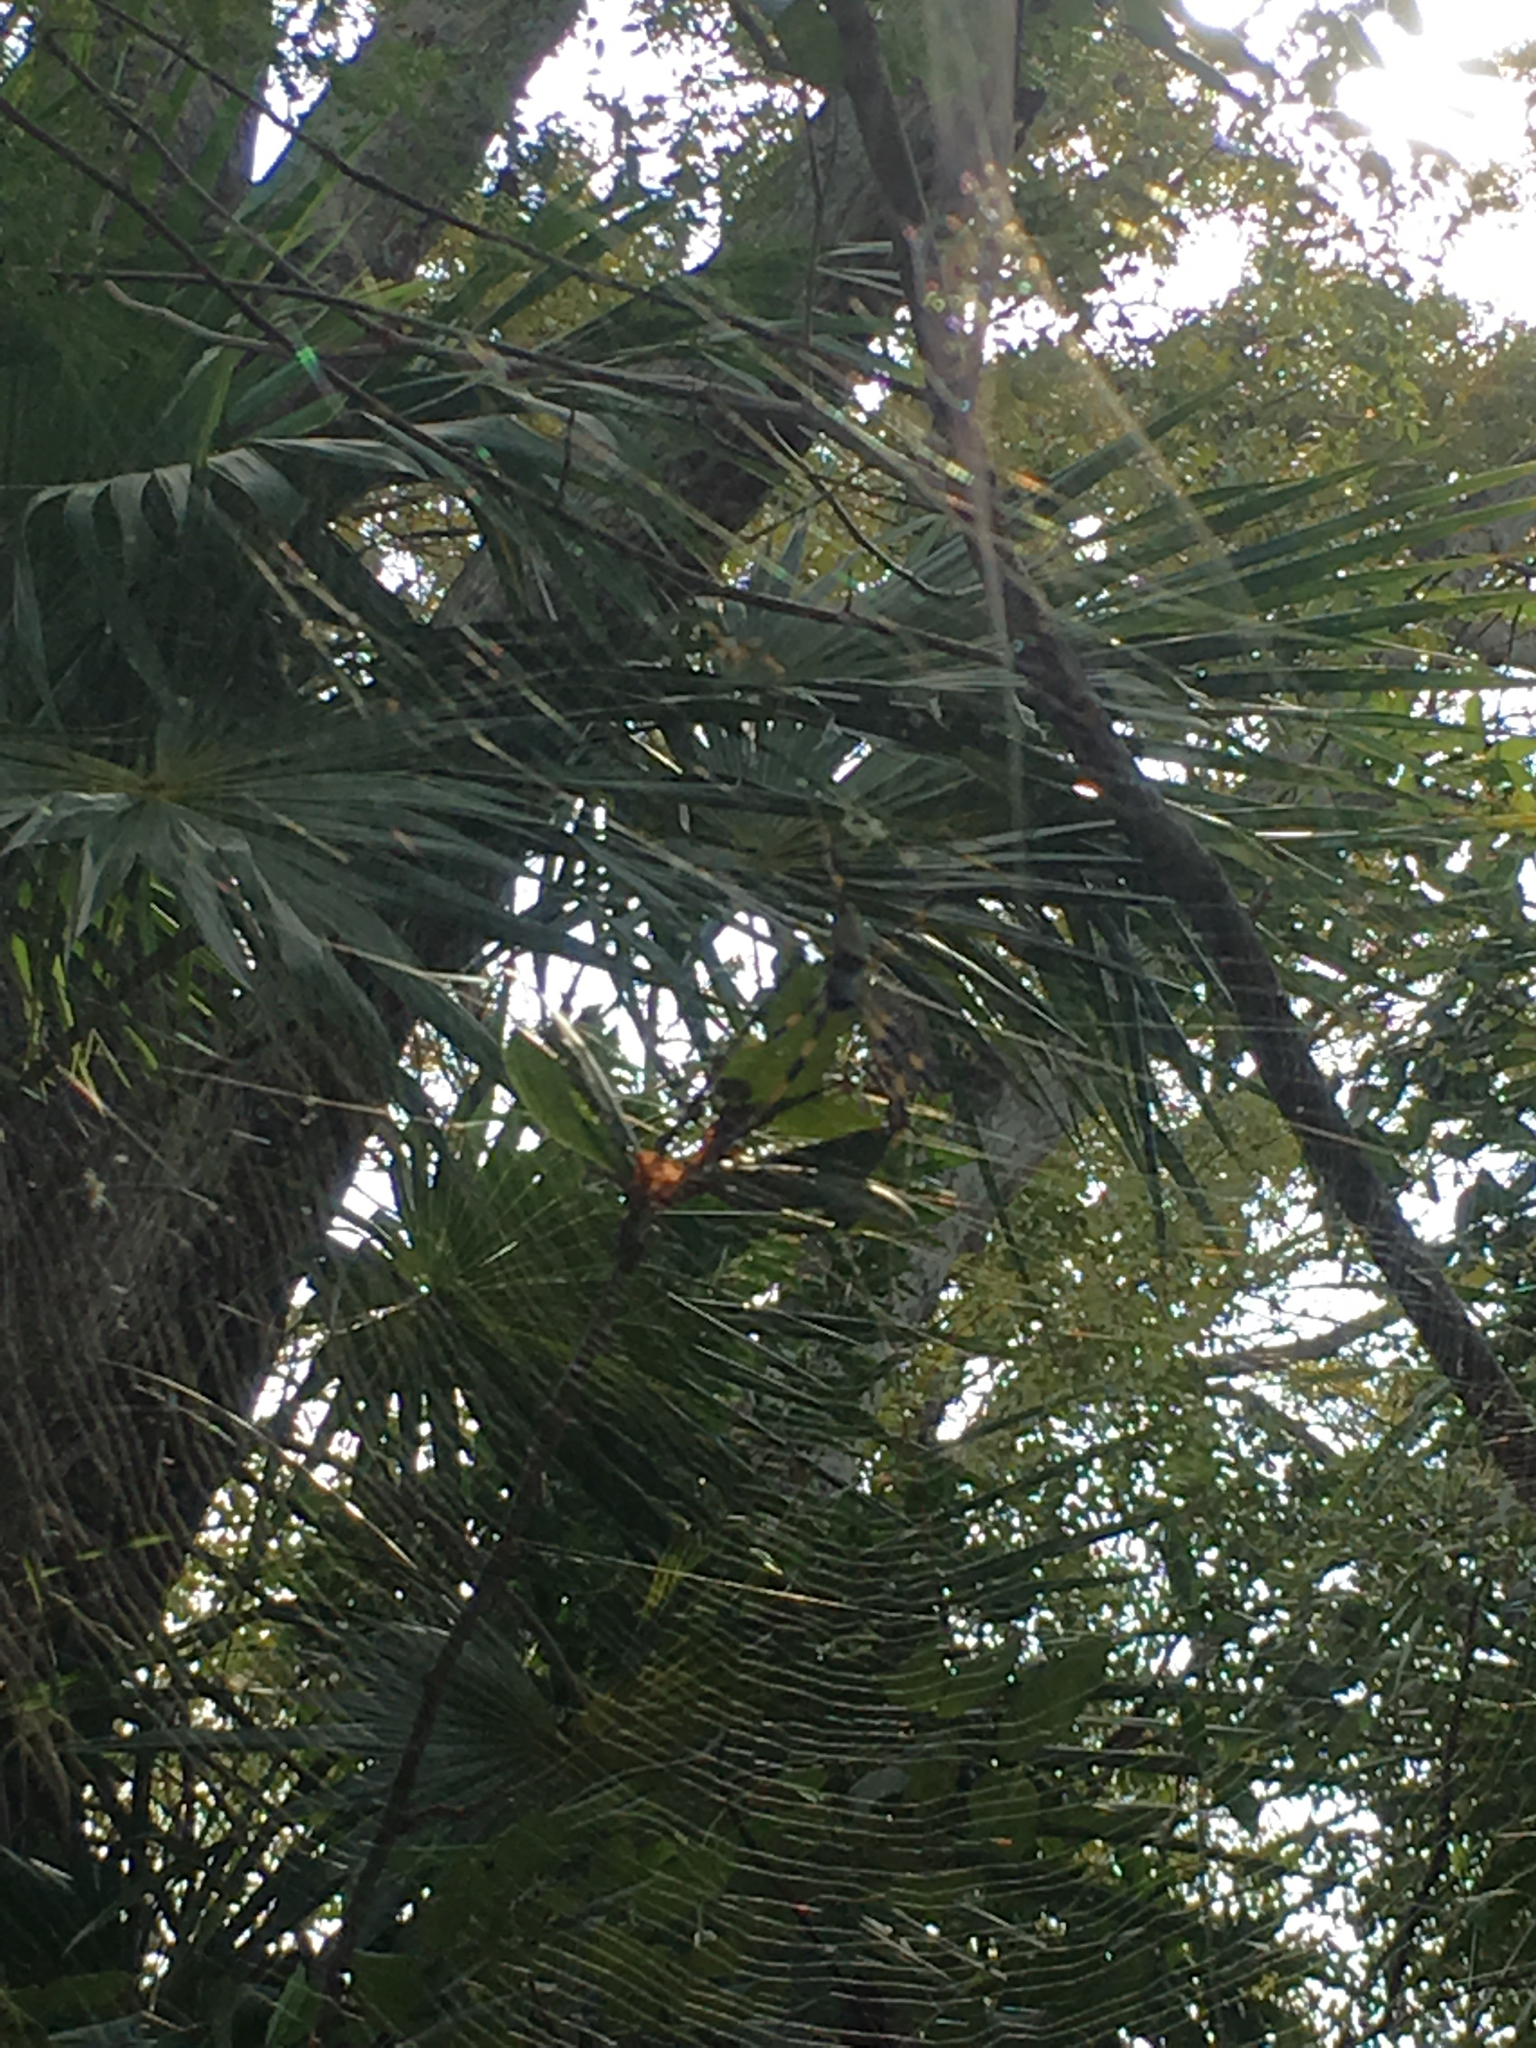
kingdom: Animalia
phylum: Arthropoda
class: Arachnida
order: Araneae
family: Araneidae
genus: Trichonephila
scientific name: Trichonephila clavipes
